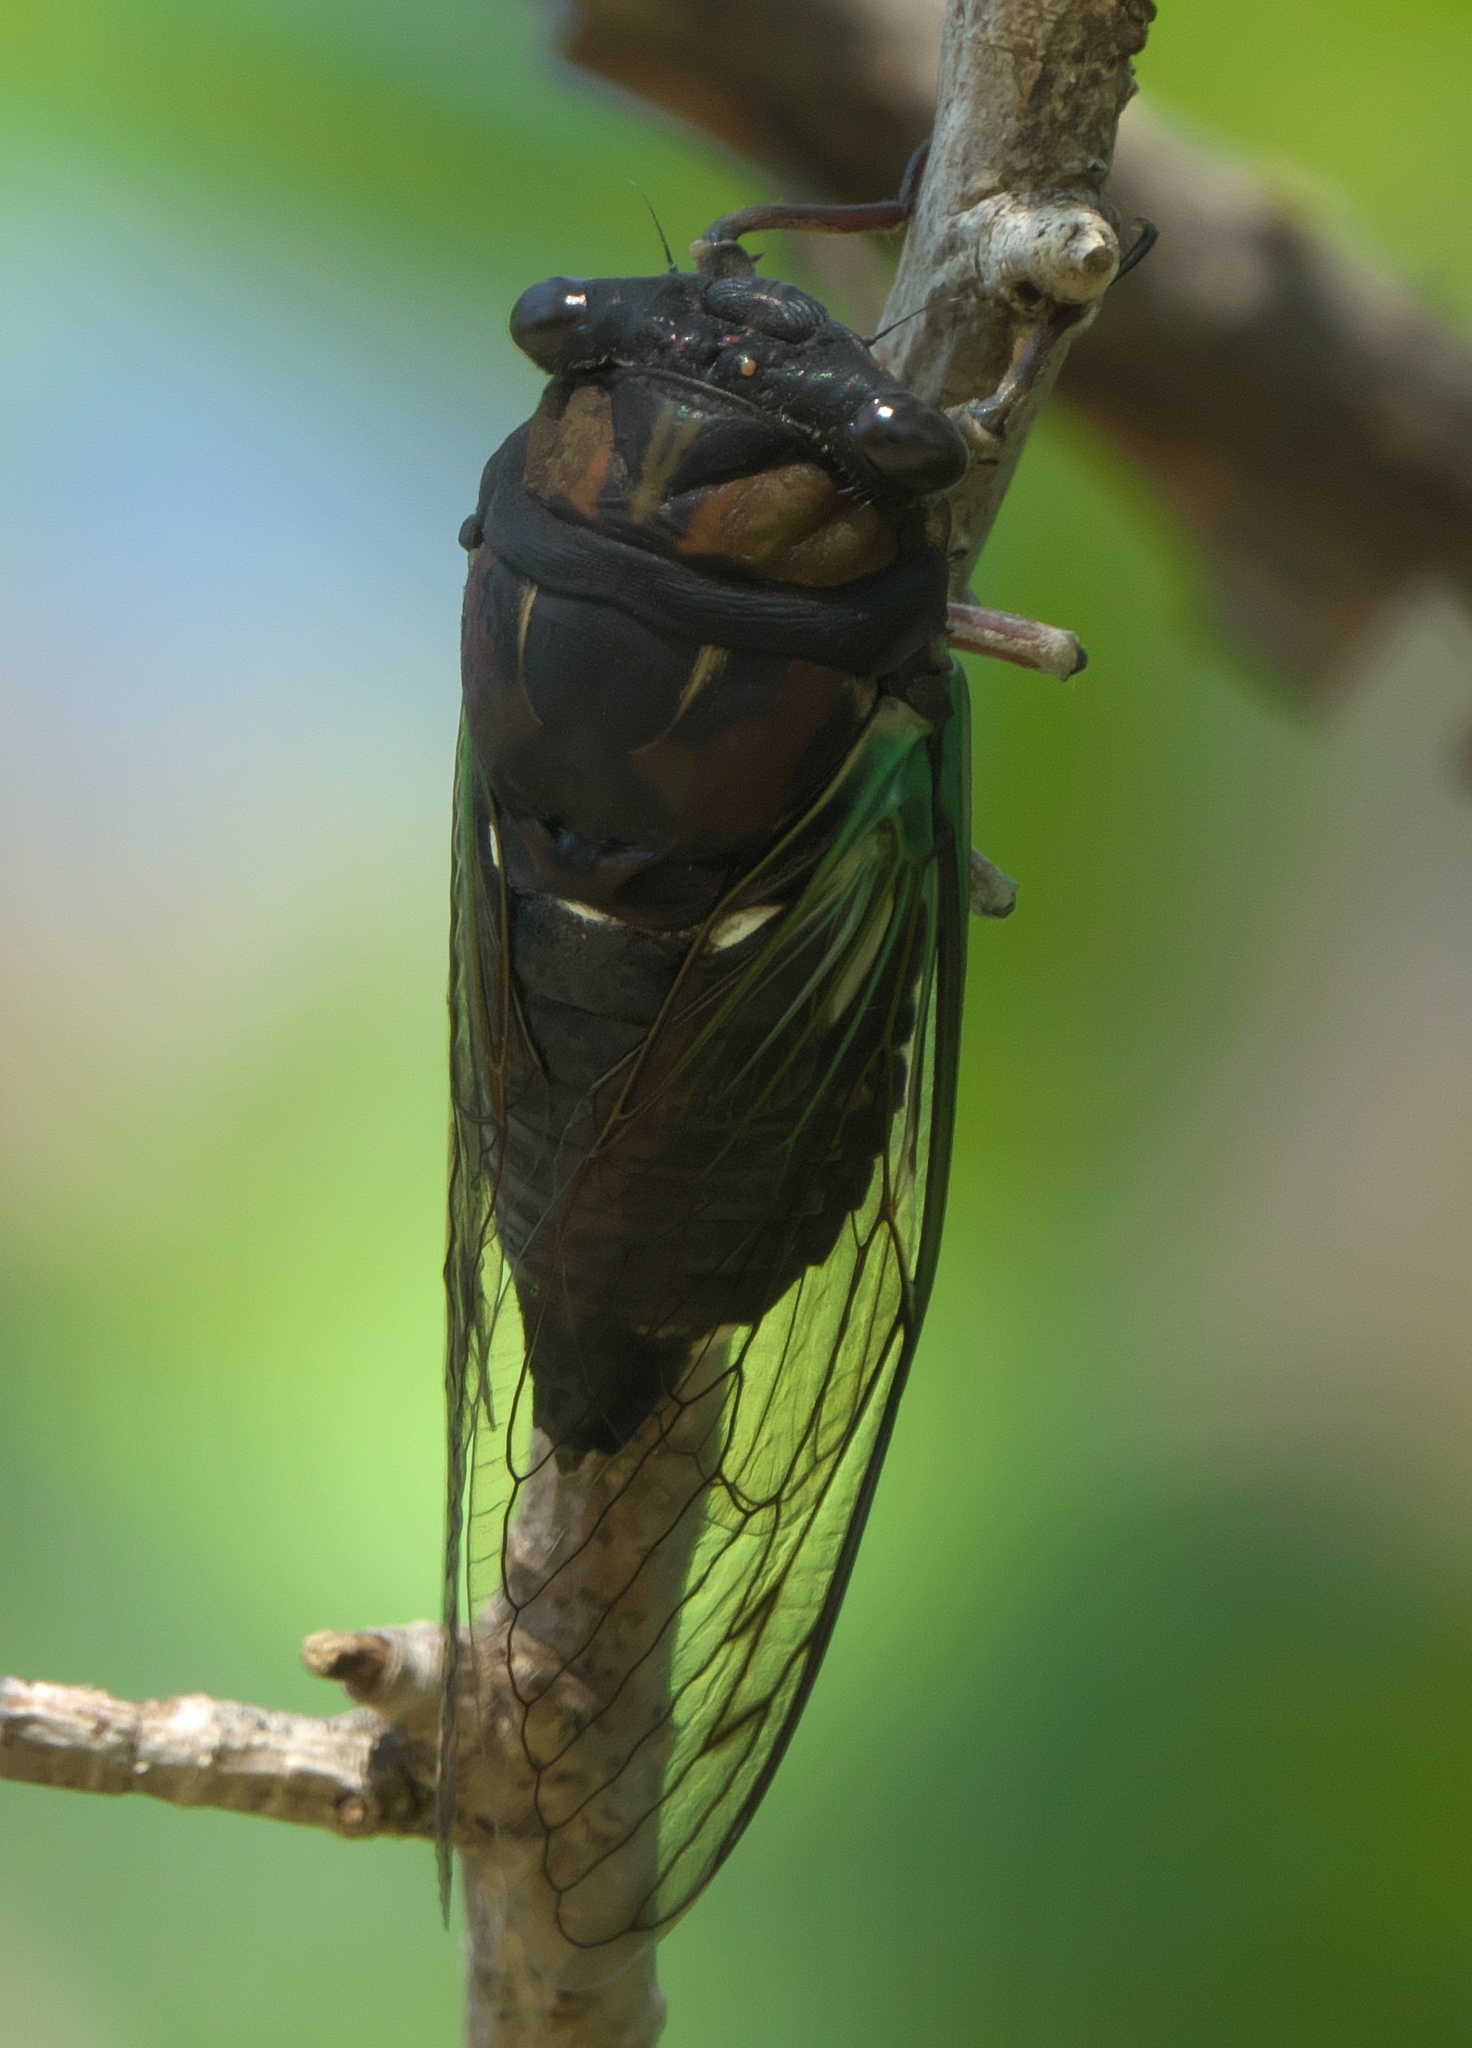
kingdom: Animalia
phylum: Arthropoda
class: Insecta
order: Hemiptera
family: Cicadidae
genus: Neotibicen
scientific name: Neotibicen lyricen
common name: Lyric cicada
